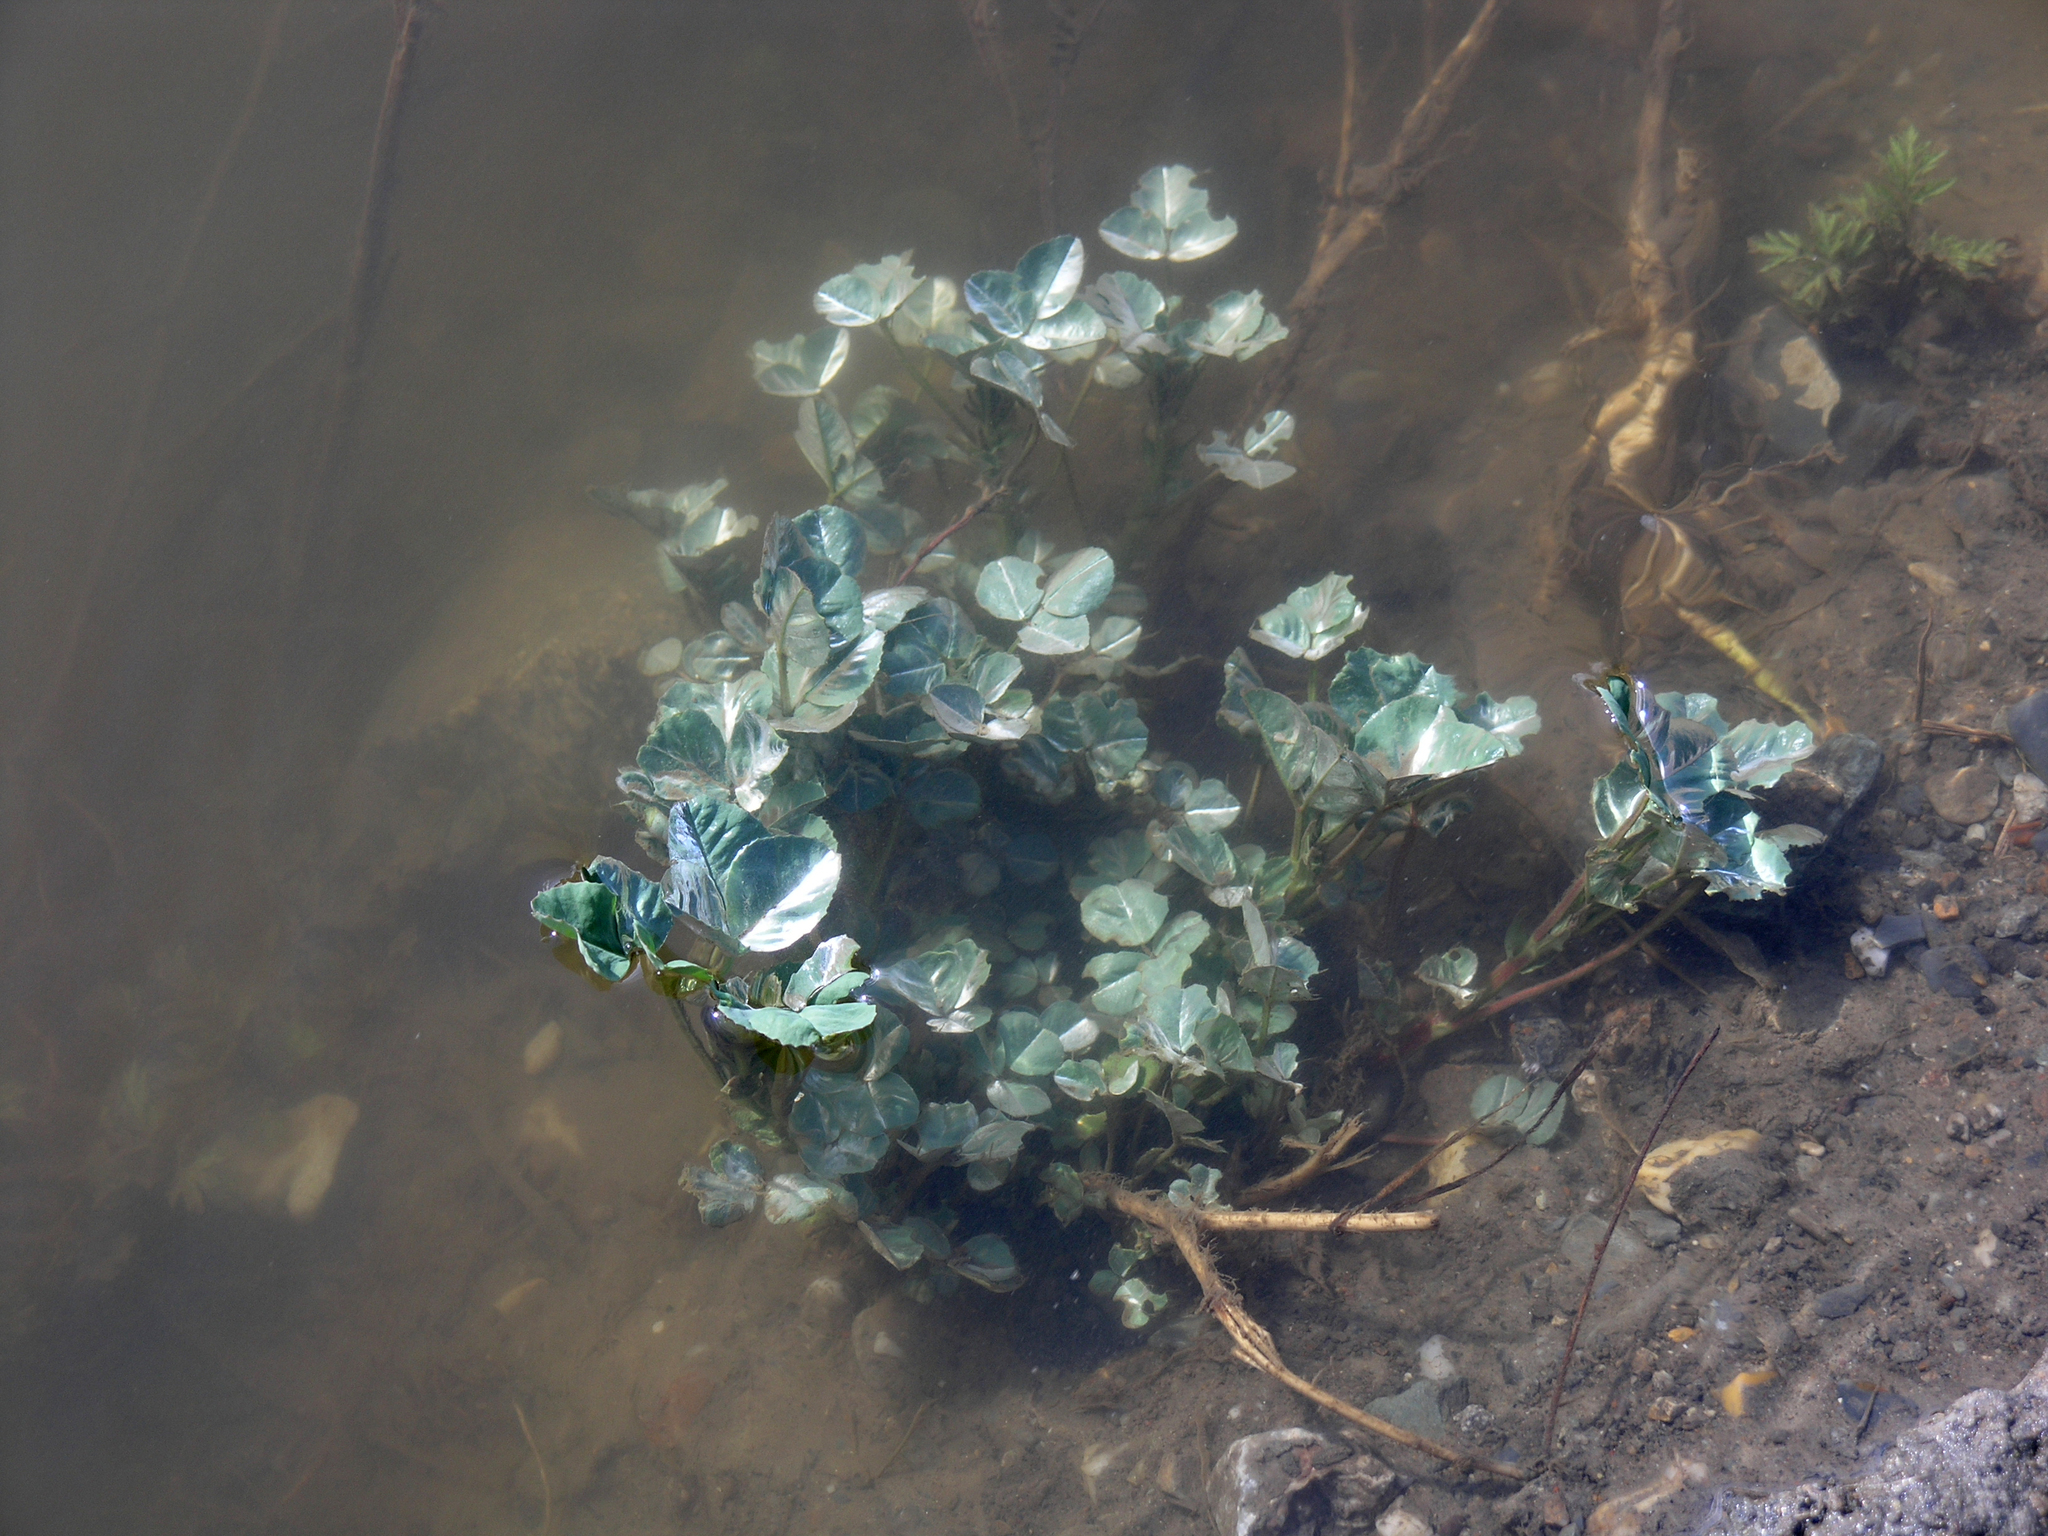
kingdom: Plantae
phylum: Tracheophyta
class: Magnoliopsida
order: Fabales
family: Fabaceae
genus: Trifolium
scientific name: Trifolium repens
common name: White clover
